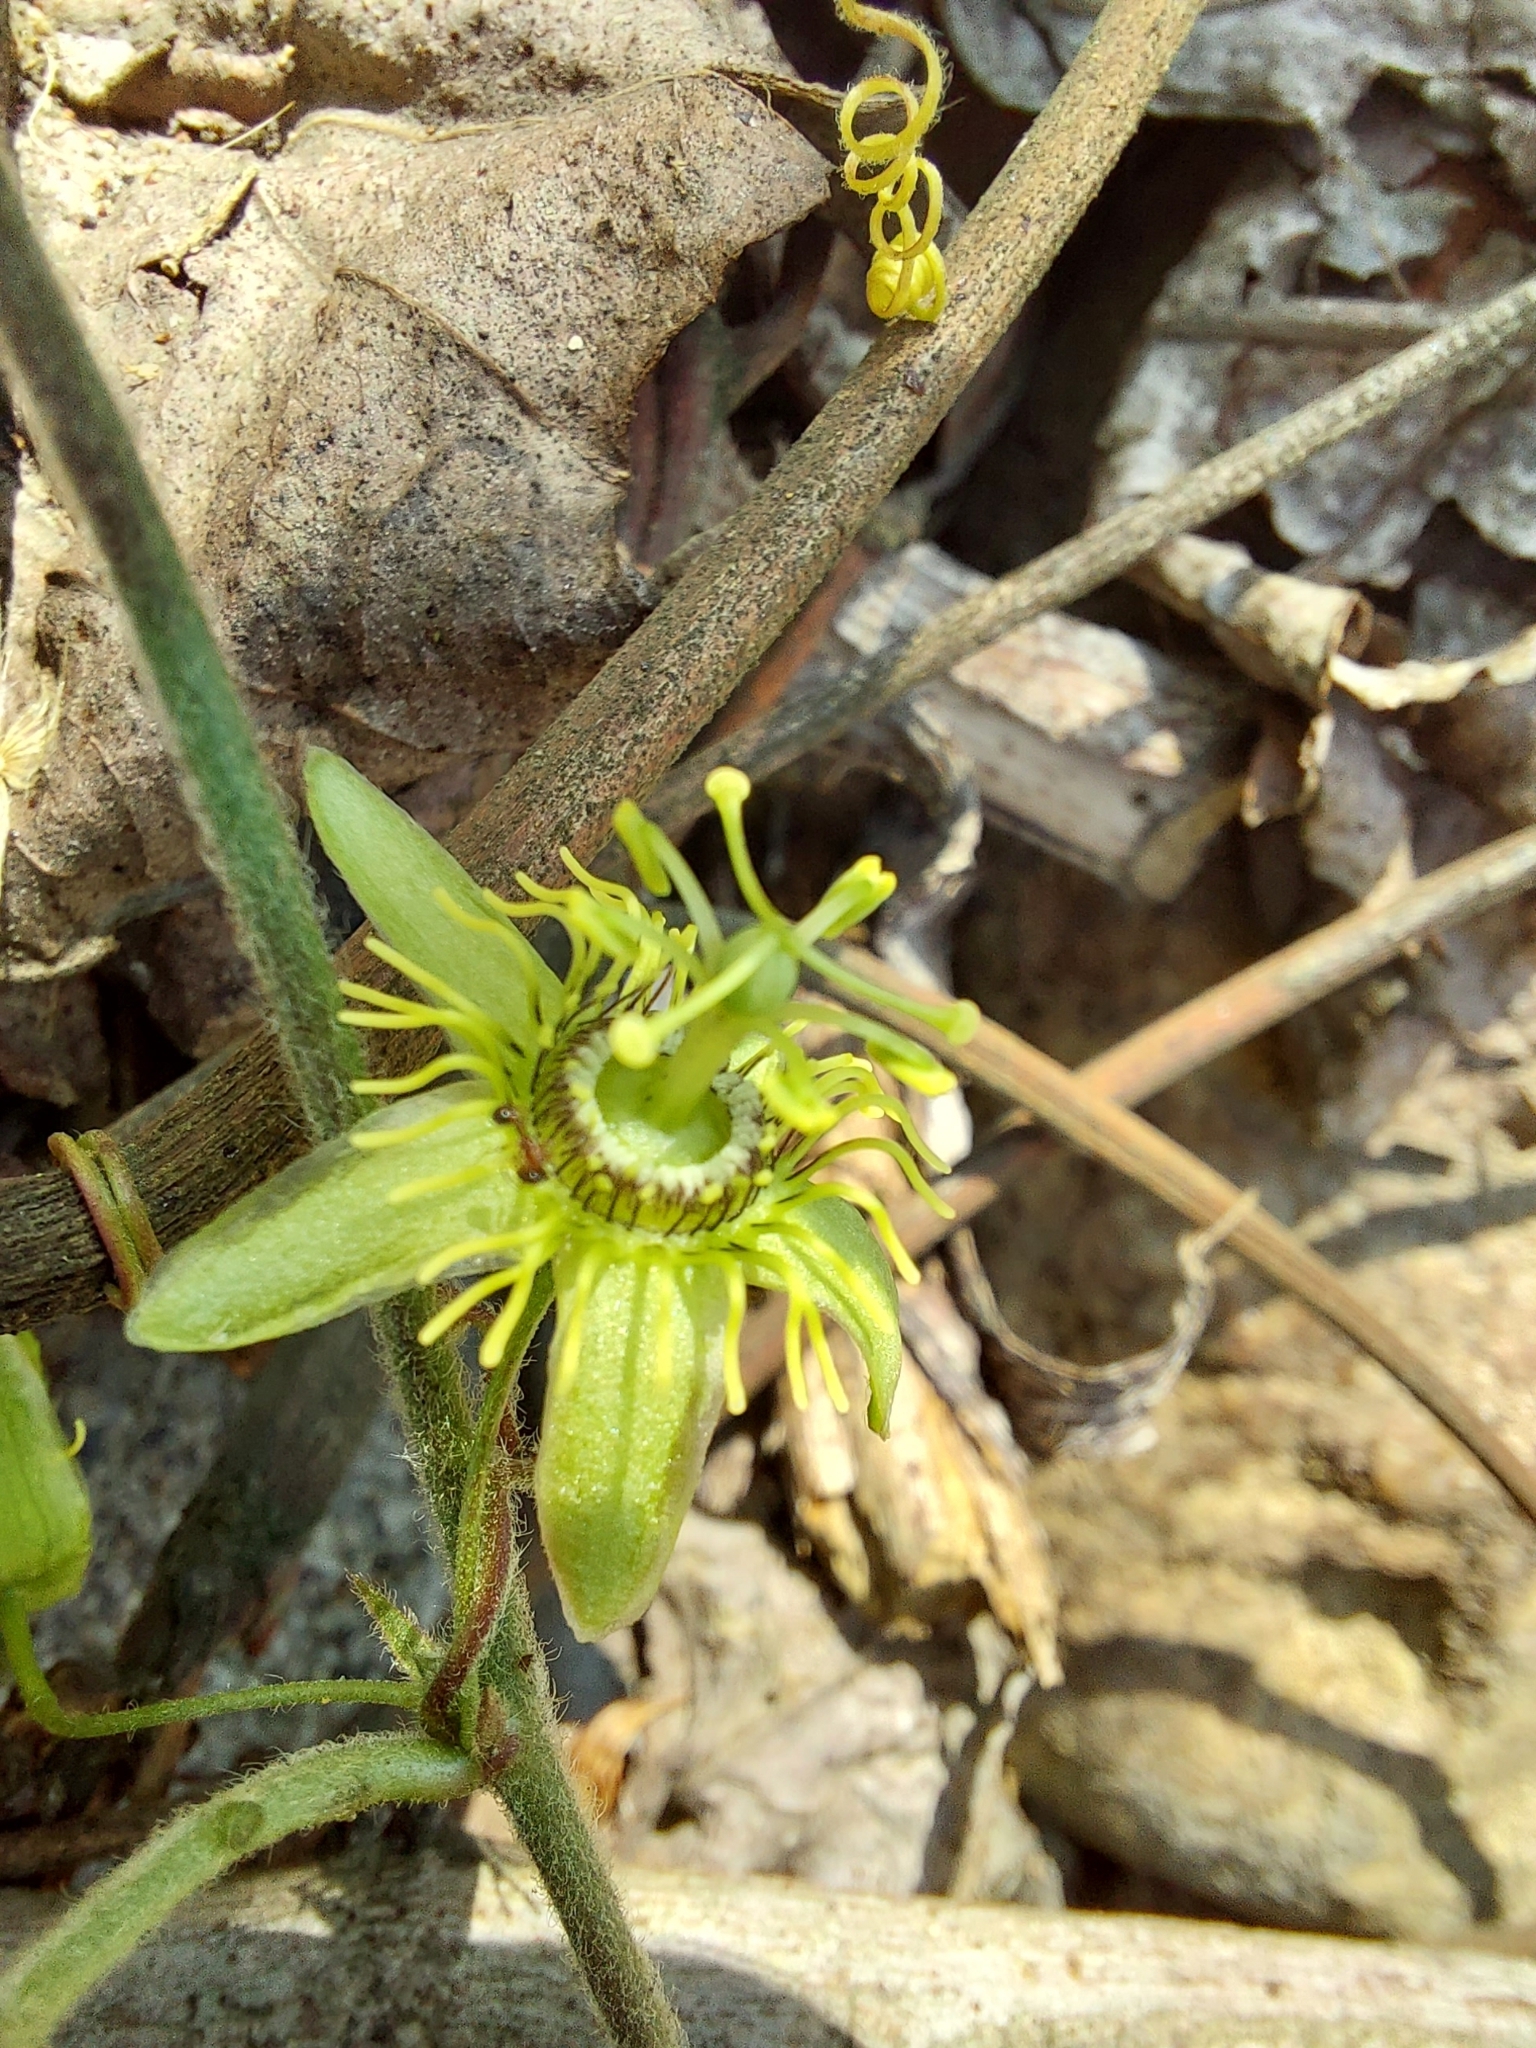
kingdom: Plantae
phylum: Tracheophyta
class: Magnoliopsida
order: Malpighiales
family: Passifloraceae
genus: Passiflora
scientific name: Passiflora suberosa
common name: Wild passionfruit
